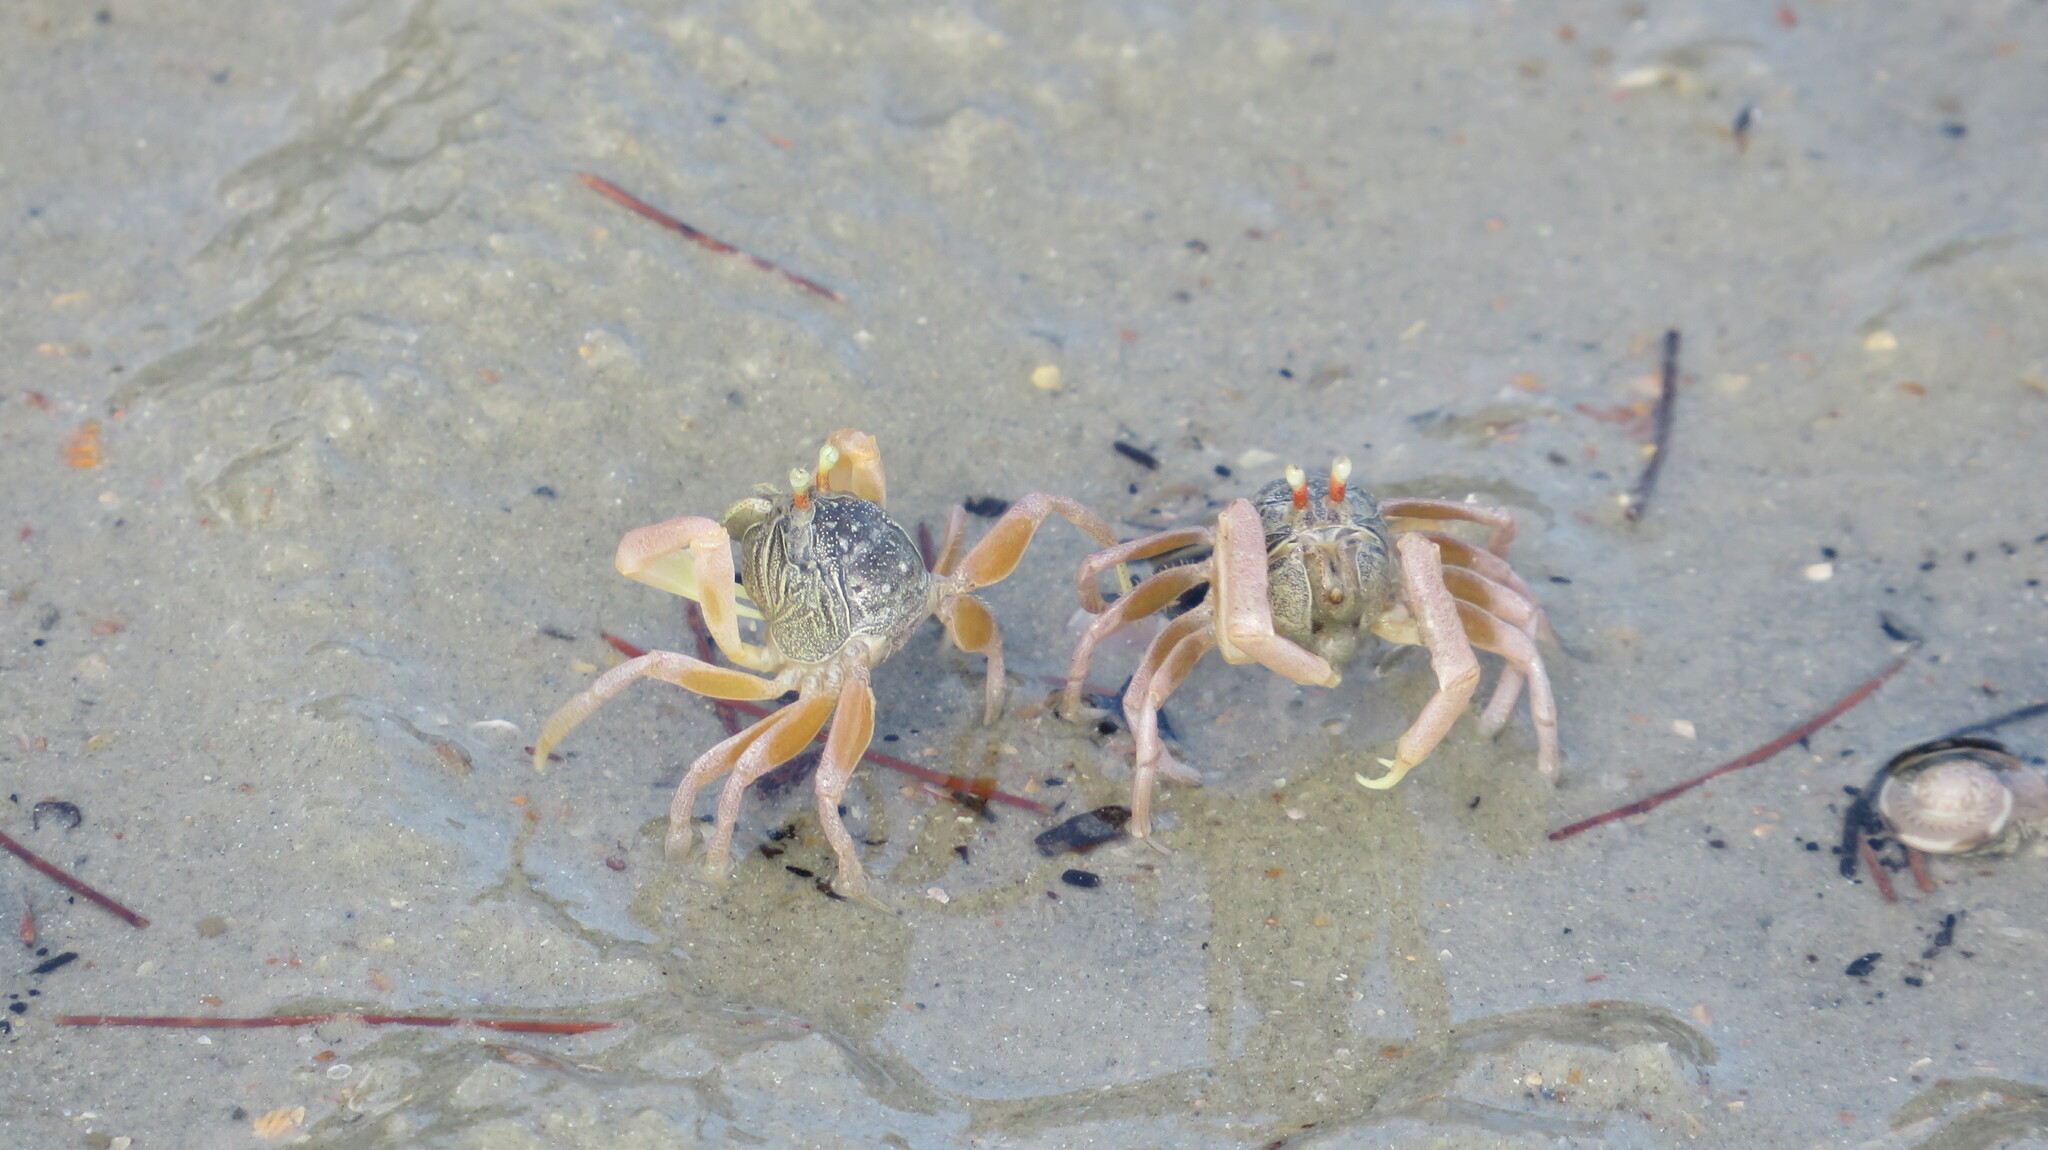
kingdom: Animalia
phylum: Arthropoda
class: Malacostraca
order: Decapoda
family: Dotillidae
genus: Dotilla
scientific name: Dotilla myctiroides
